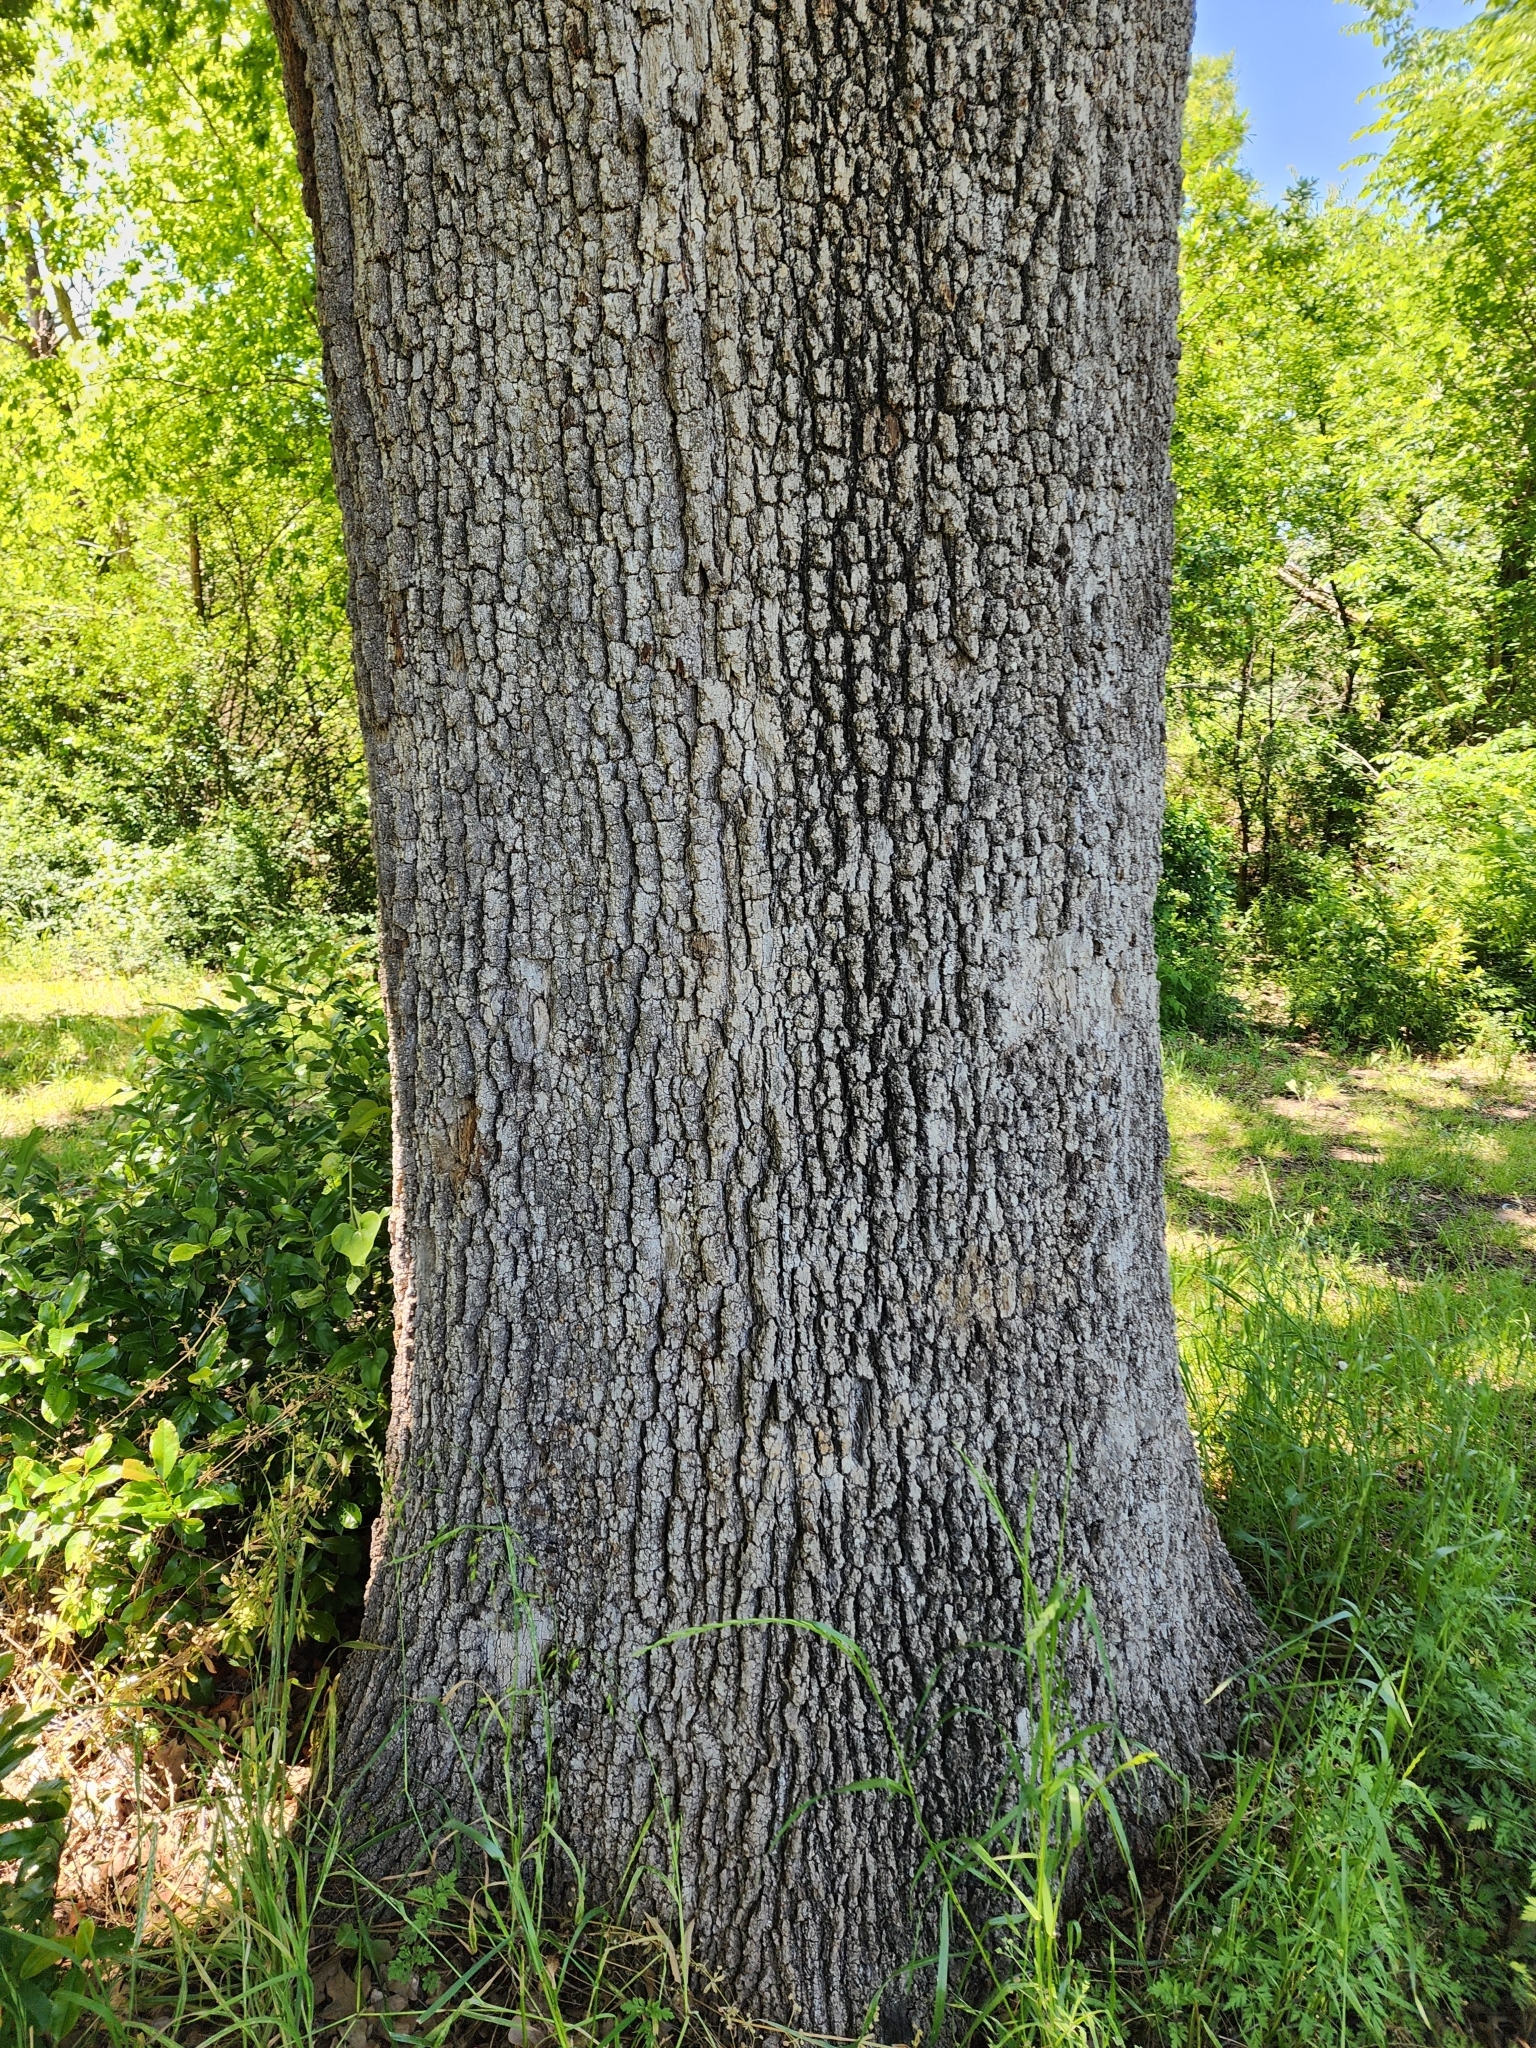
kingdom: Plantae
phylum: Tracheophyta
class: Magnoliopsida
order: Fagales
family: Fagaceae
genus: Quercus
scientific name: Quercus stellata
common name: Post oak
